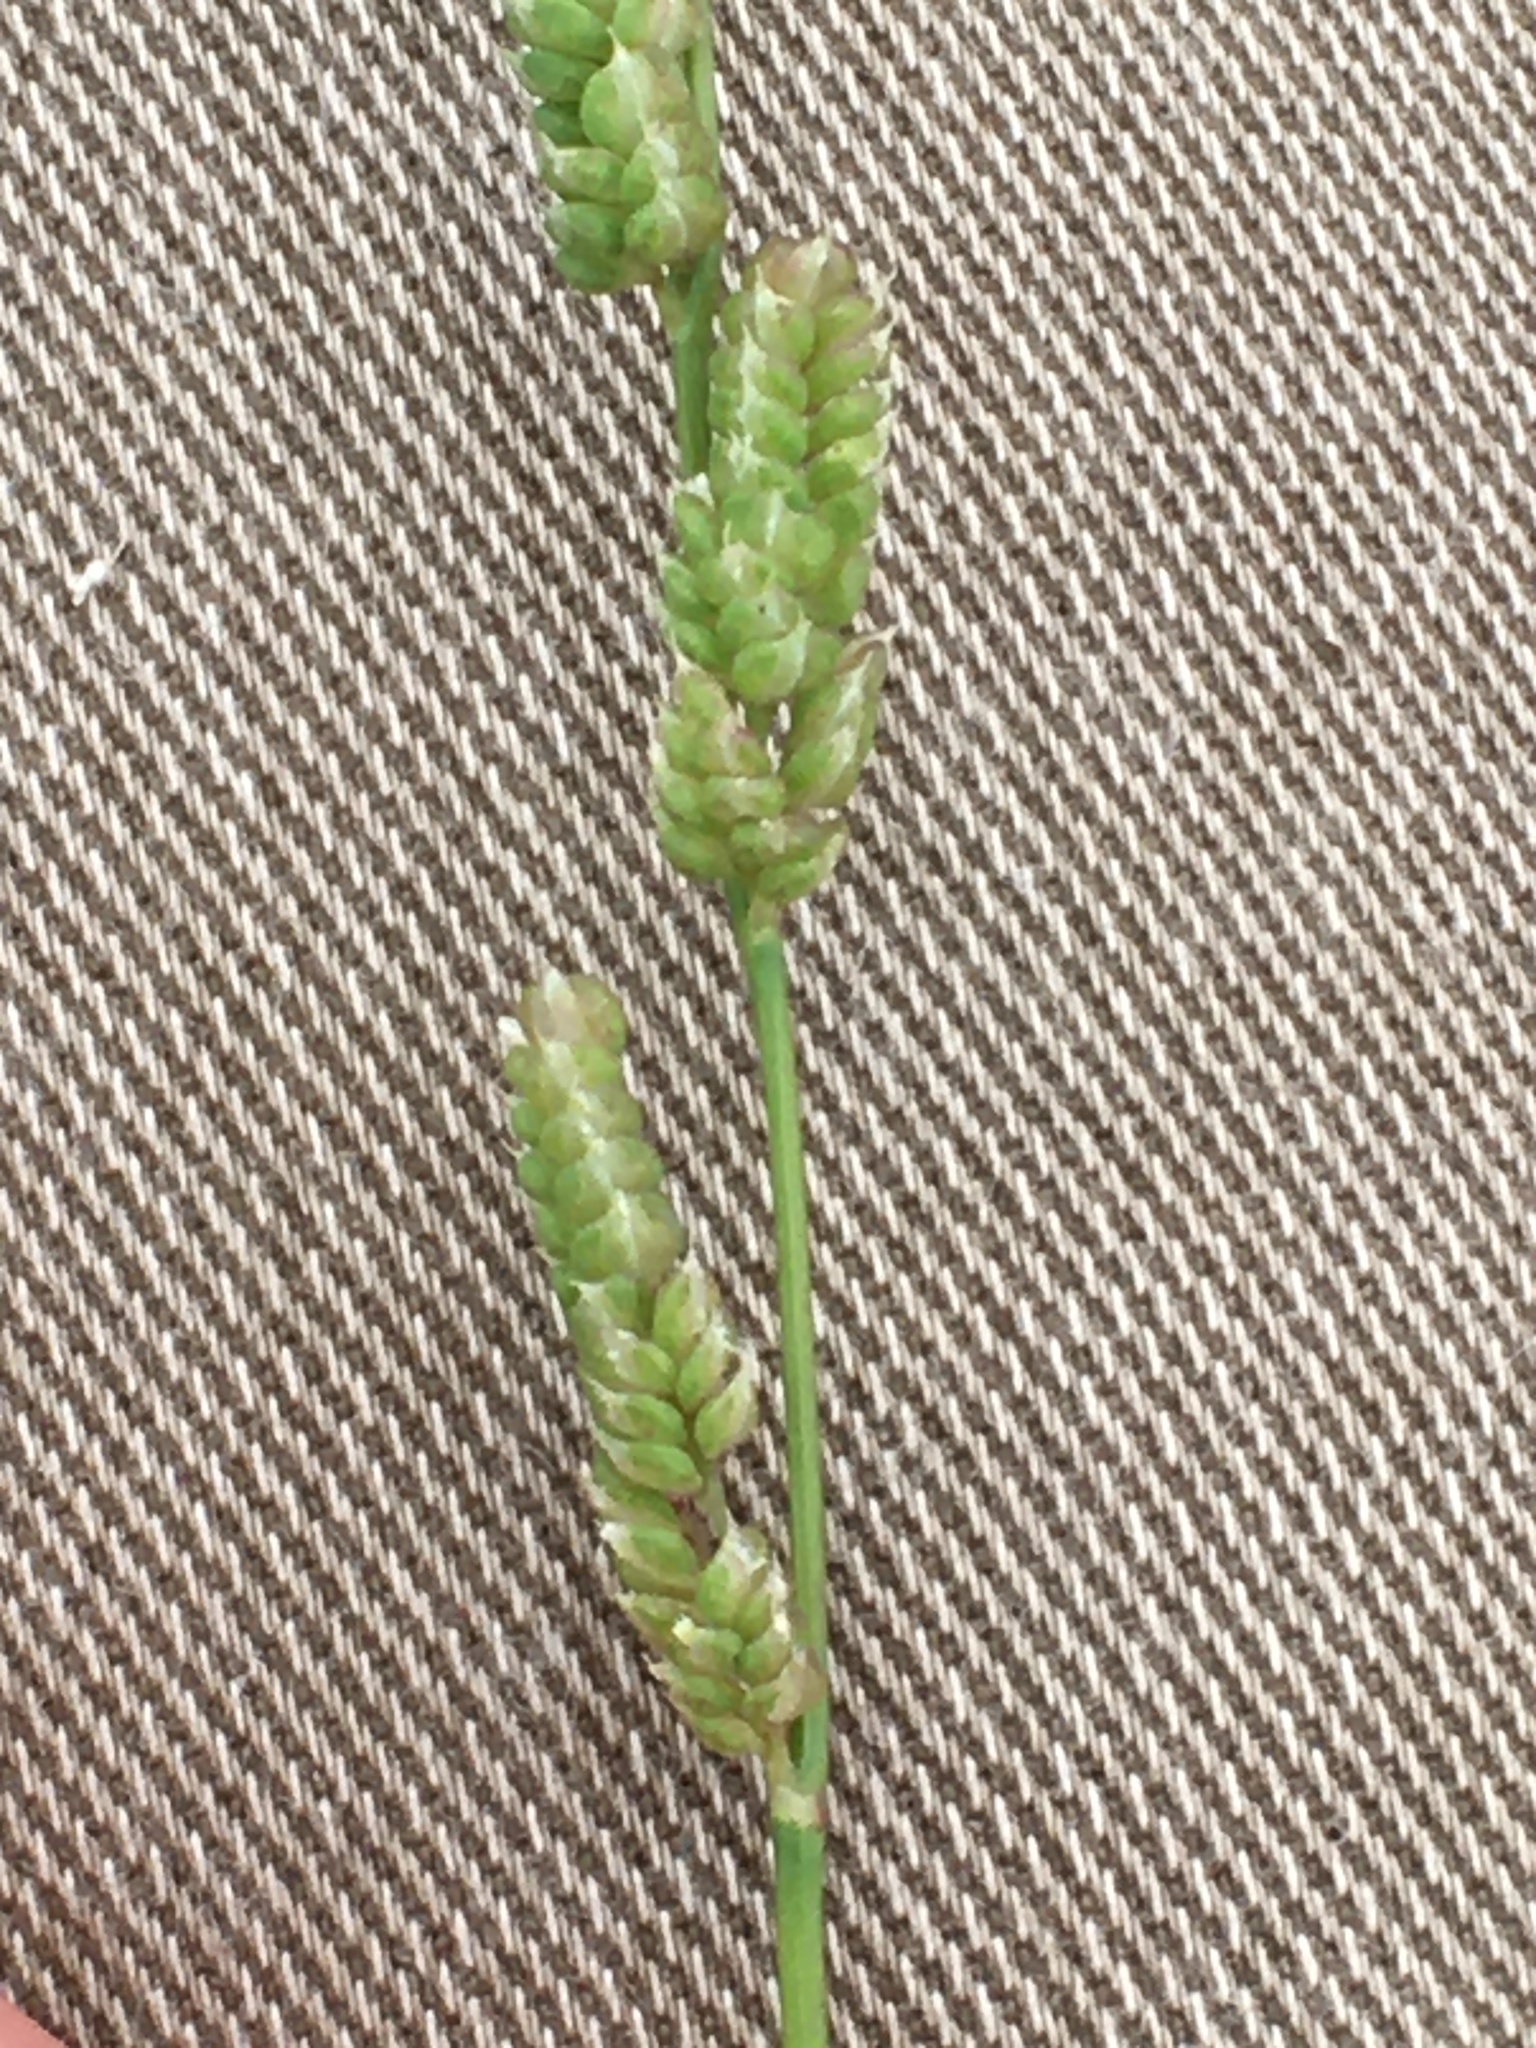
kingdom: Plantae
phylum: Tracheophyta
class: Liliopsida
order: Poales
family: Poaceae
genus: Beckmannia
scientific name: Beckmannia syzigachne
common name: American slough-grass
